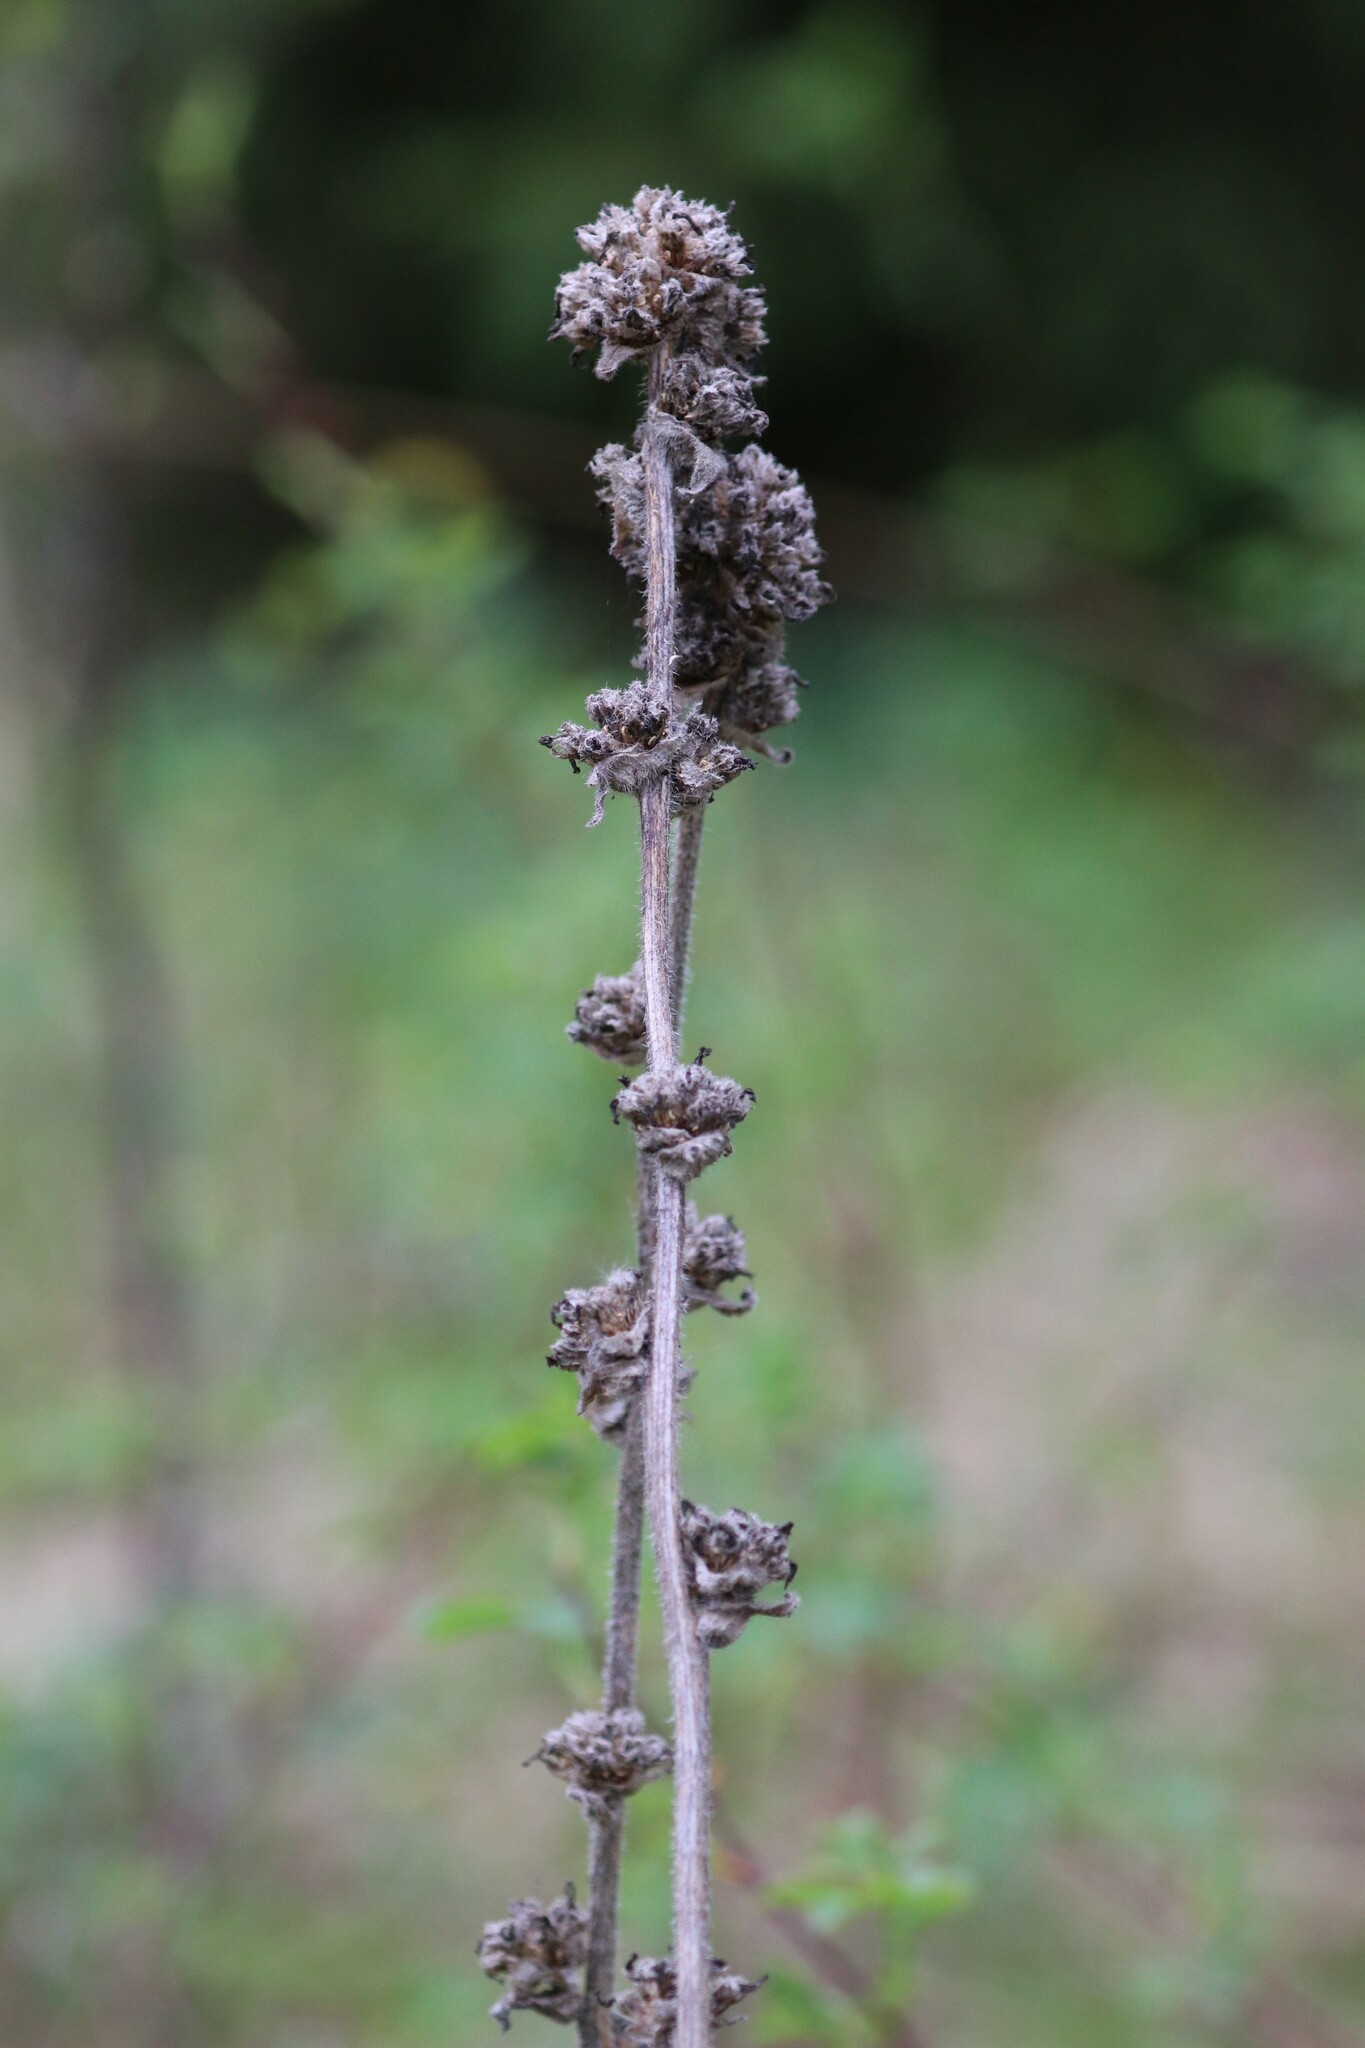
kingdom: Plantae
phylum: Tracheophyta
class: Magnoliopsida
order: Asterales
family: Campanulaceae
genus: Campanula
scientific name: Campanula cervicaria
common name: Bristly bellflower
